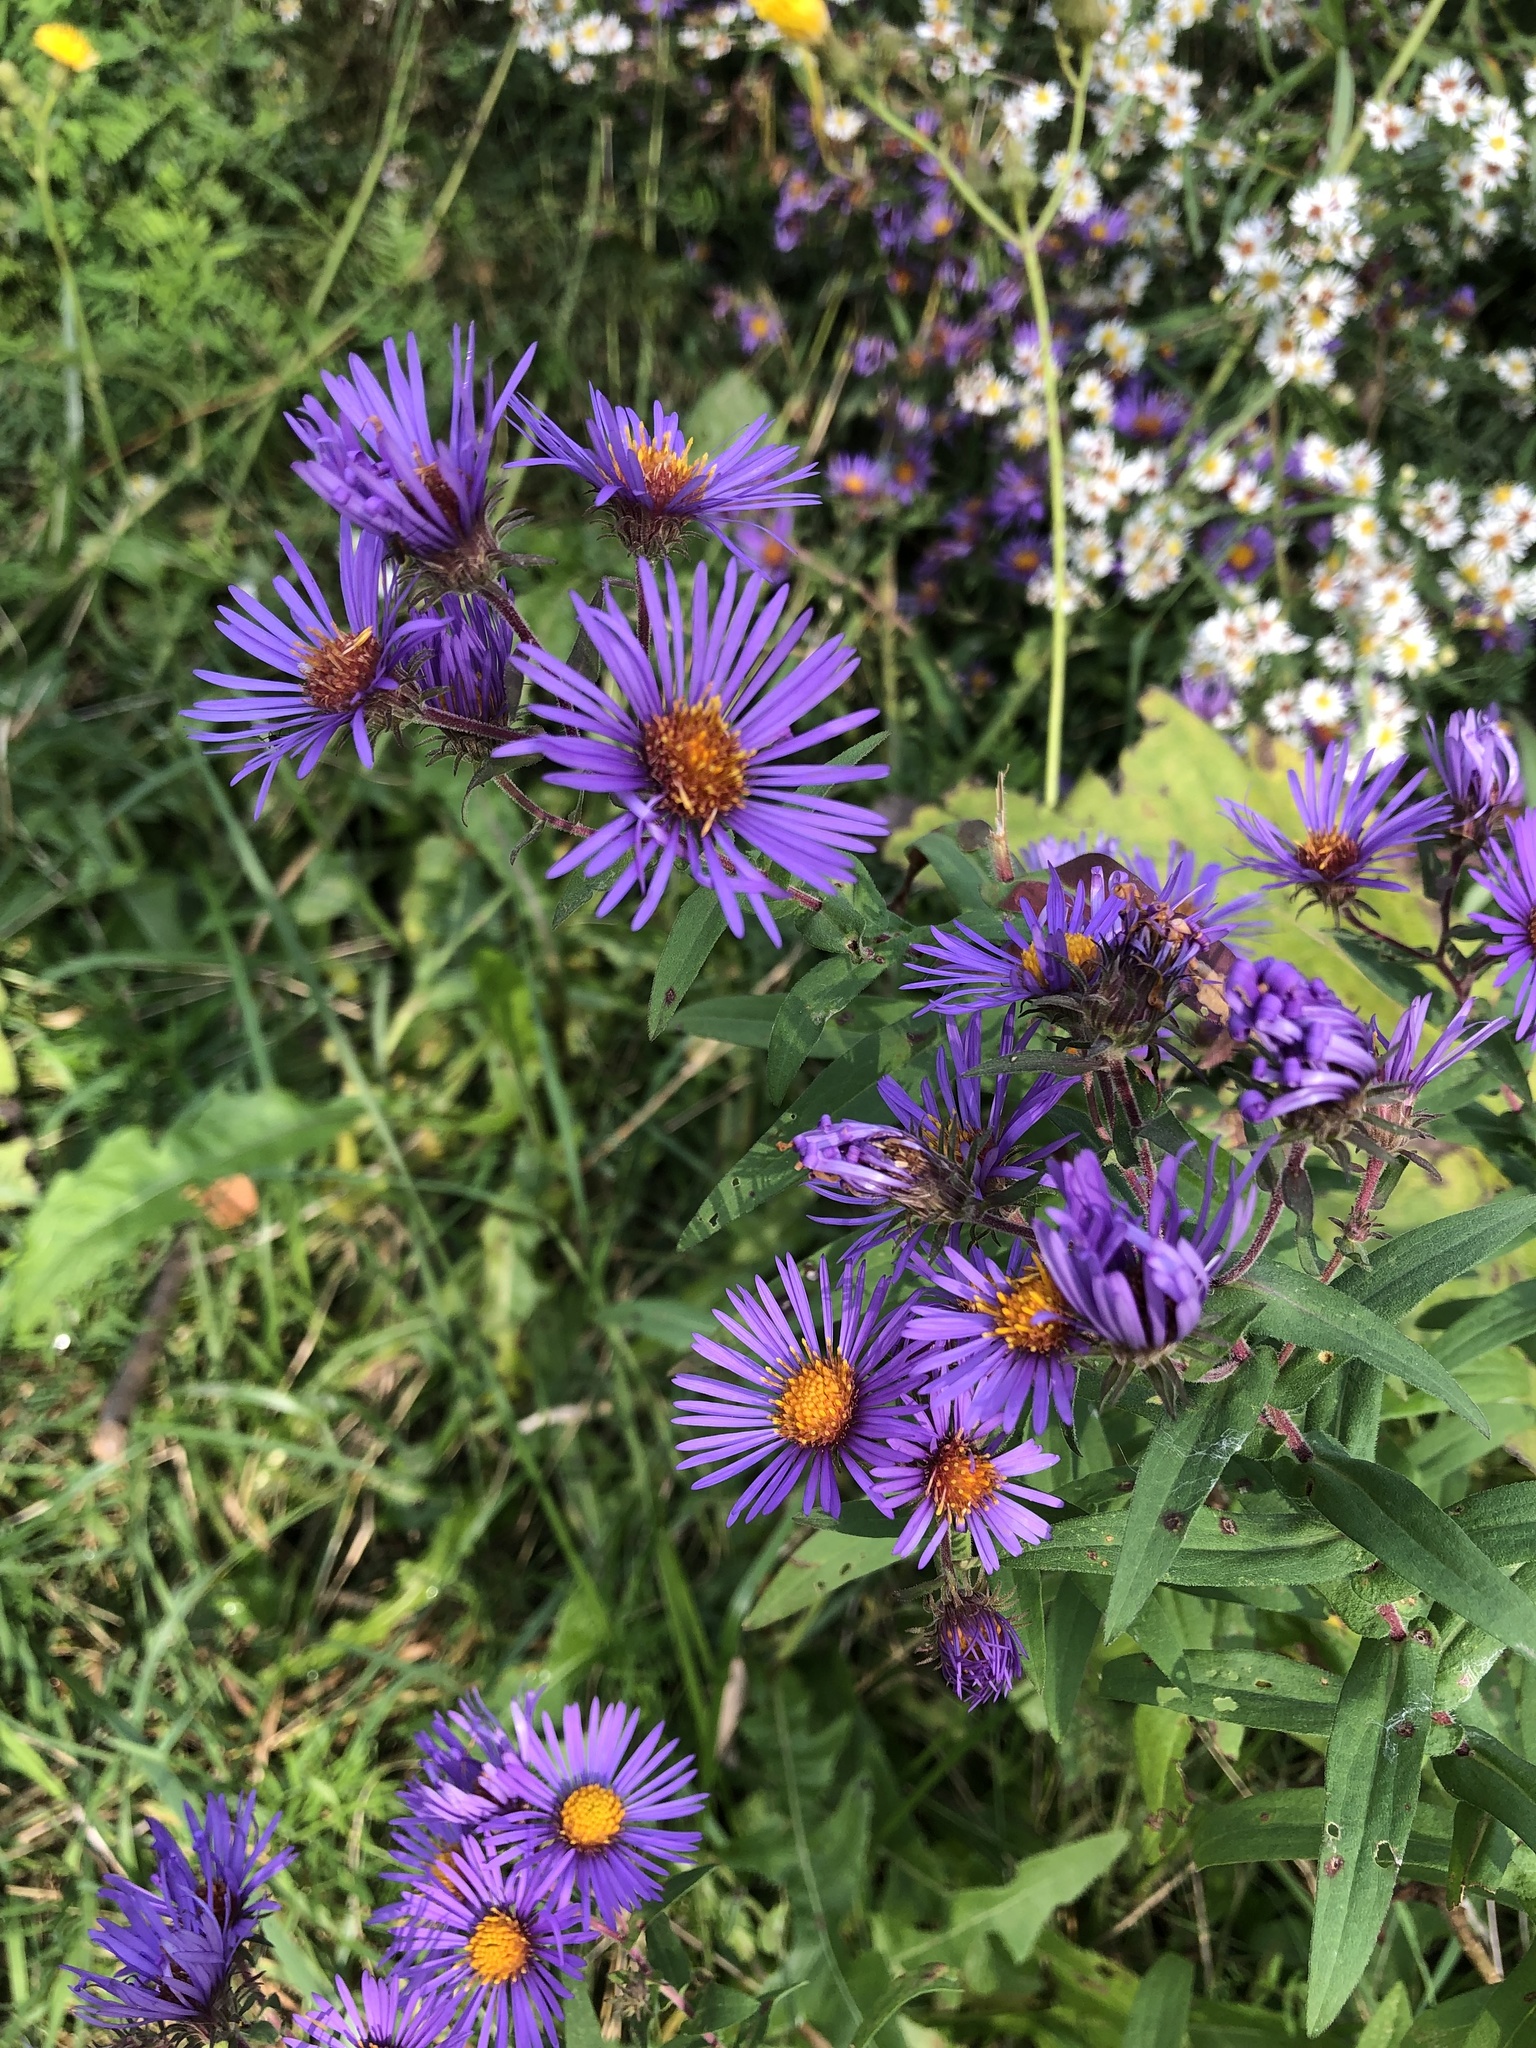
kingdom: Plantae
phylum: Tracheophyta
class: Magnoliopsida
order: Asterales
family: Asteraceae
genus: Symphyotrichum
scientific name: Symphyotrichum novae-angliae
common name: Michaelmas daisy
